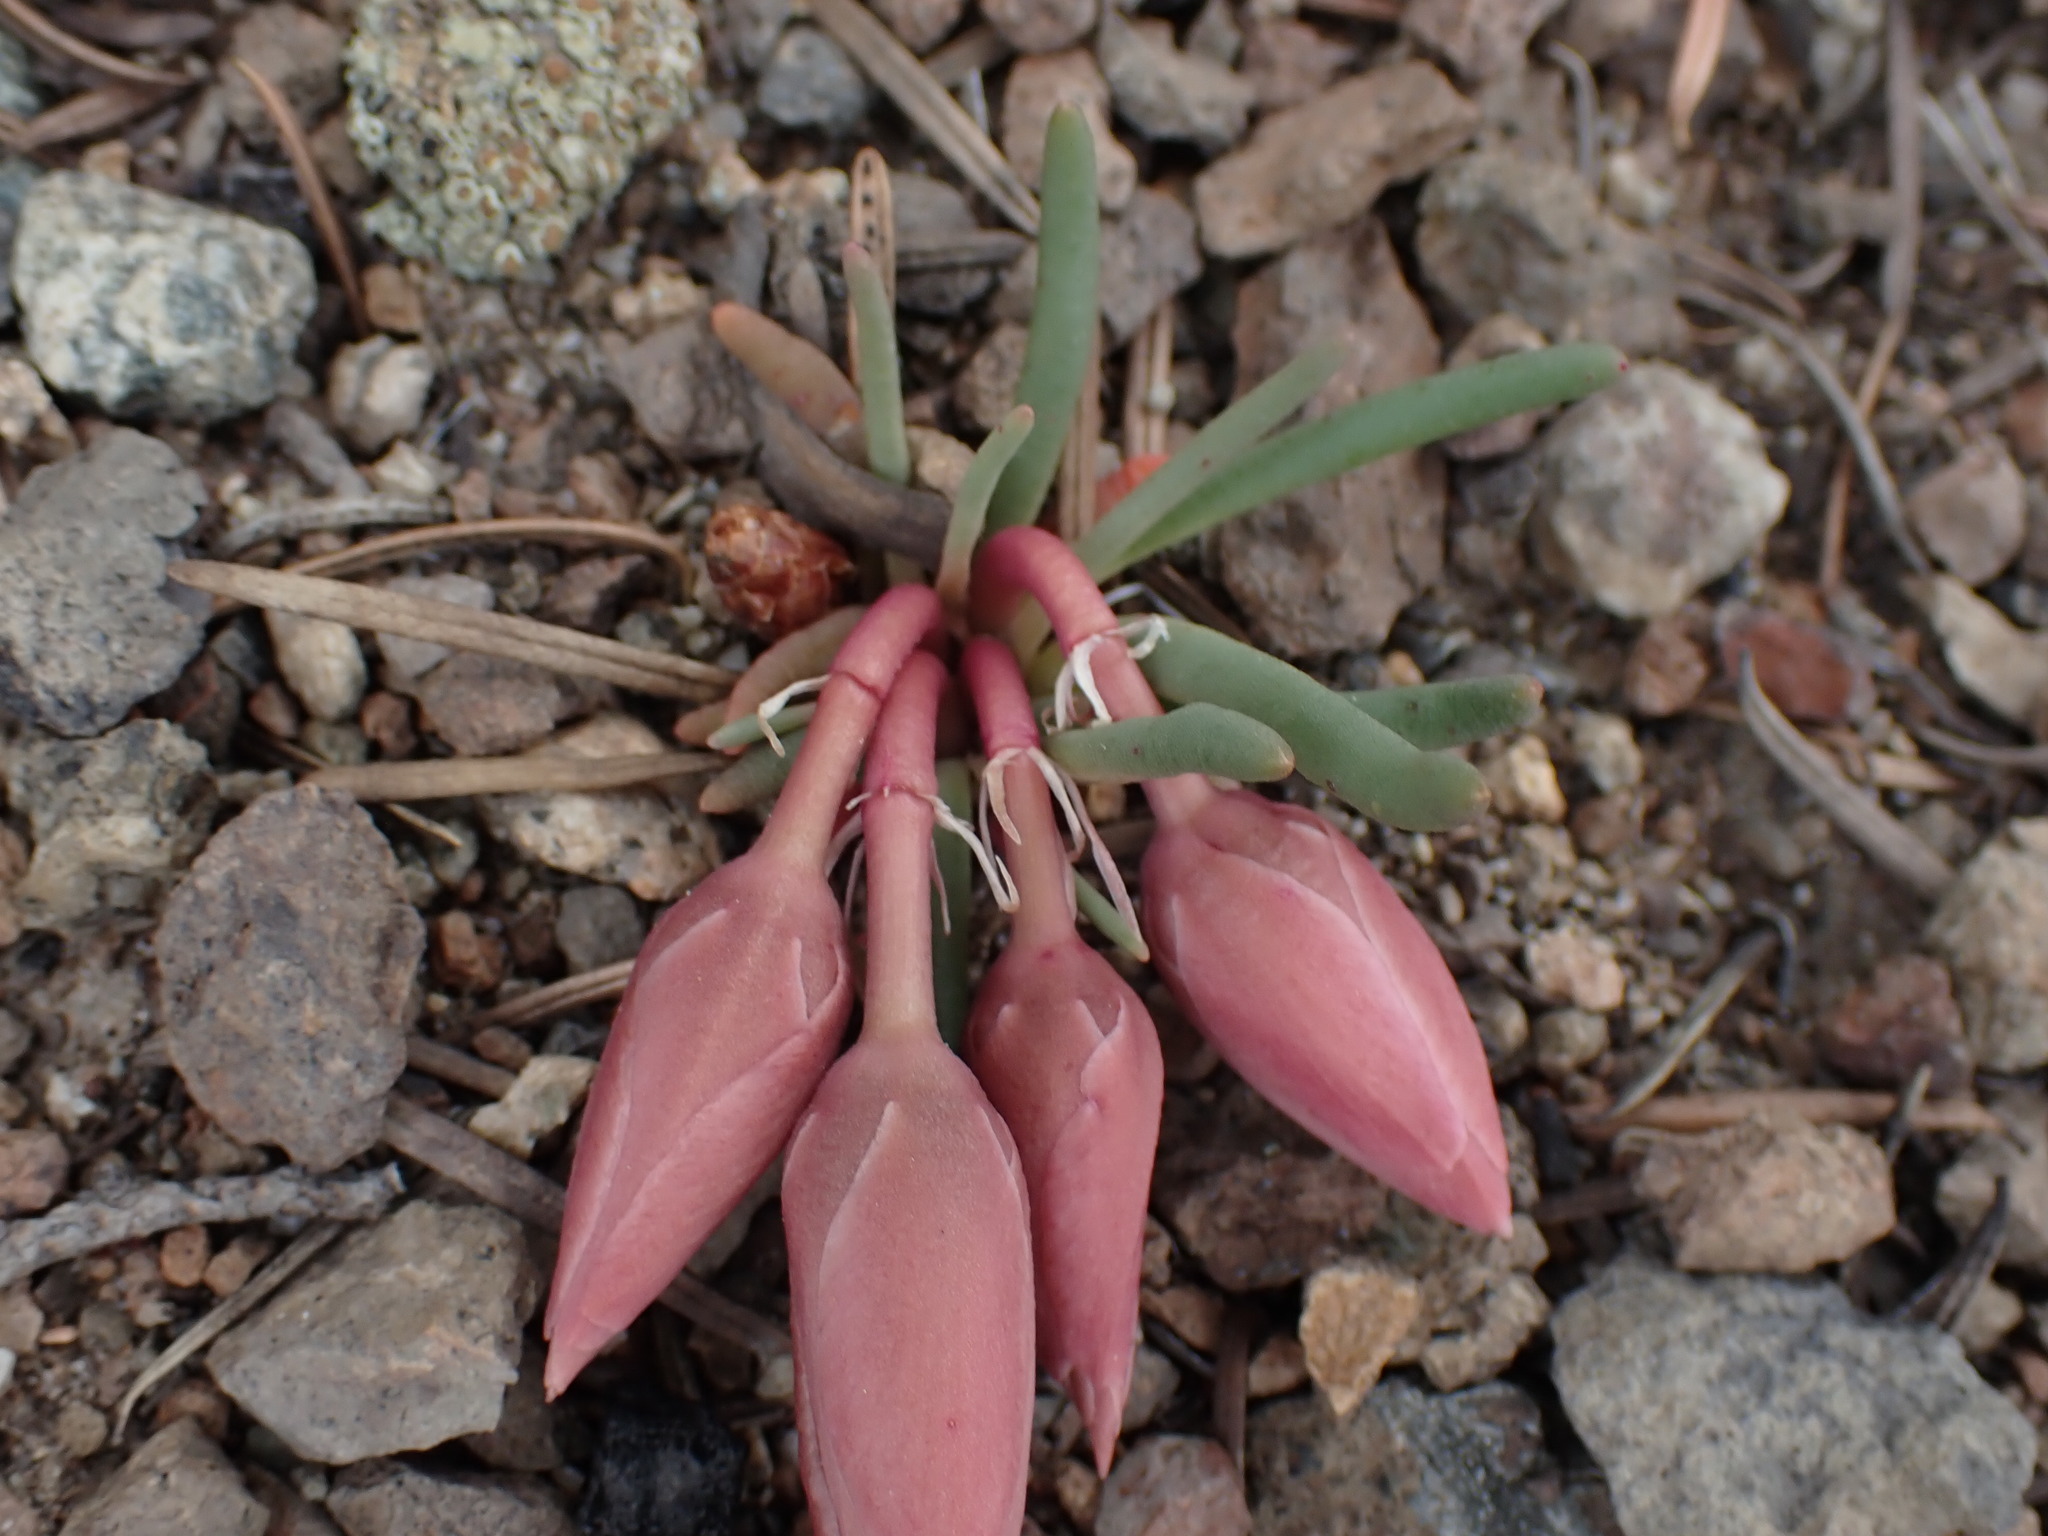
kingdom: Plantae
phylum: Tracheophyta
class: Magnoliopsida
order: Caryophyllales
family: Montiaceae
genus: Lewisia
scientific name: Lewisia rediviva
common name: Bitter-root
